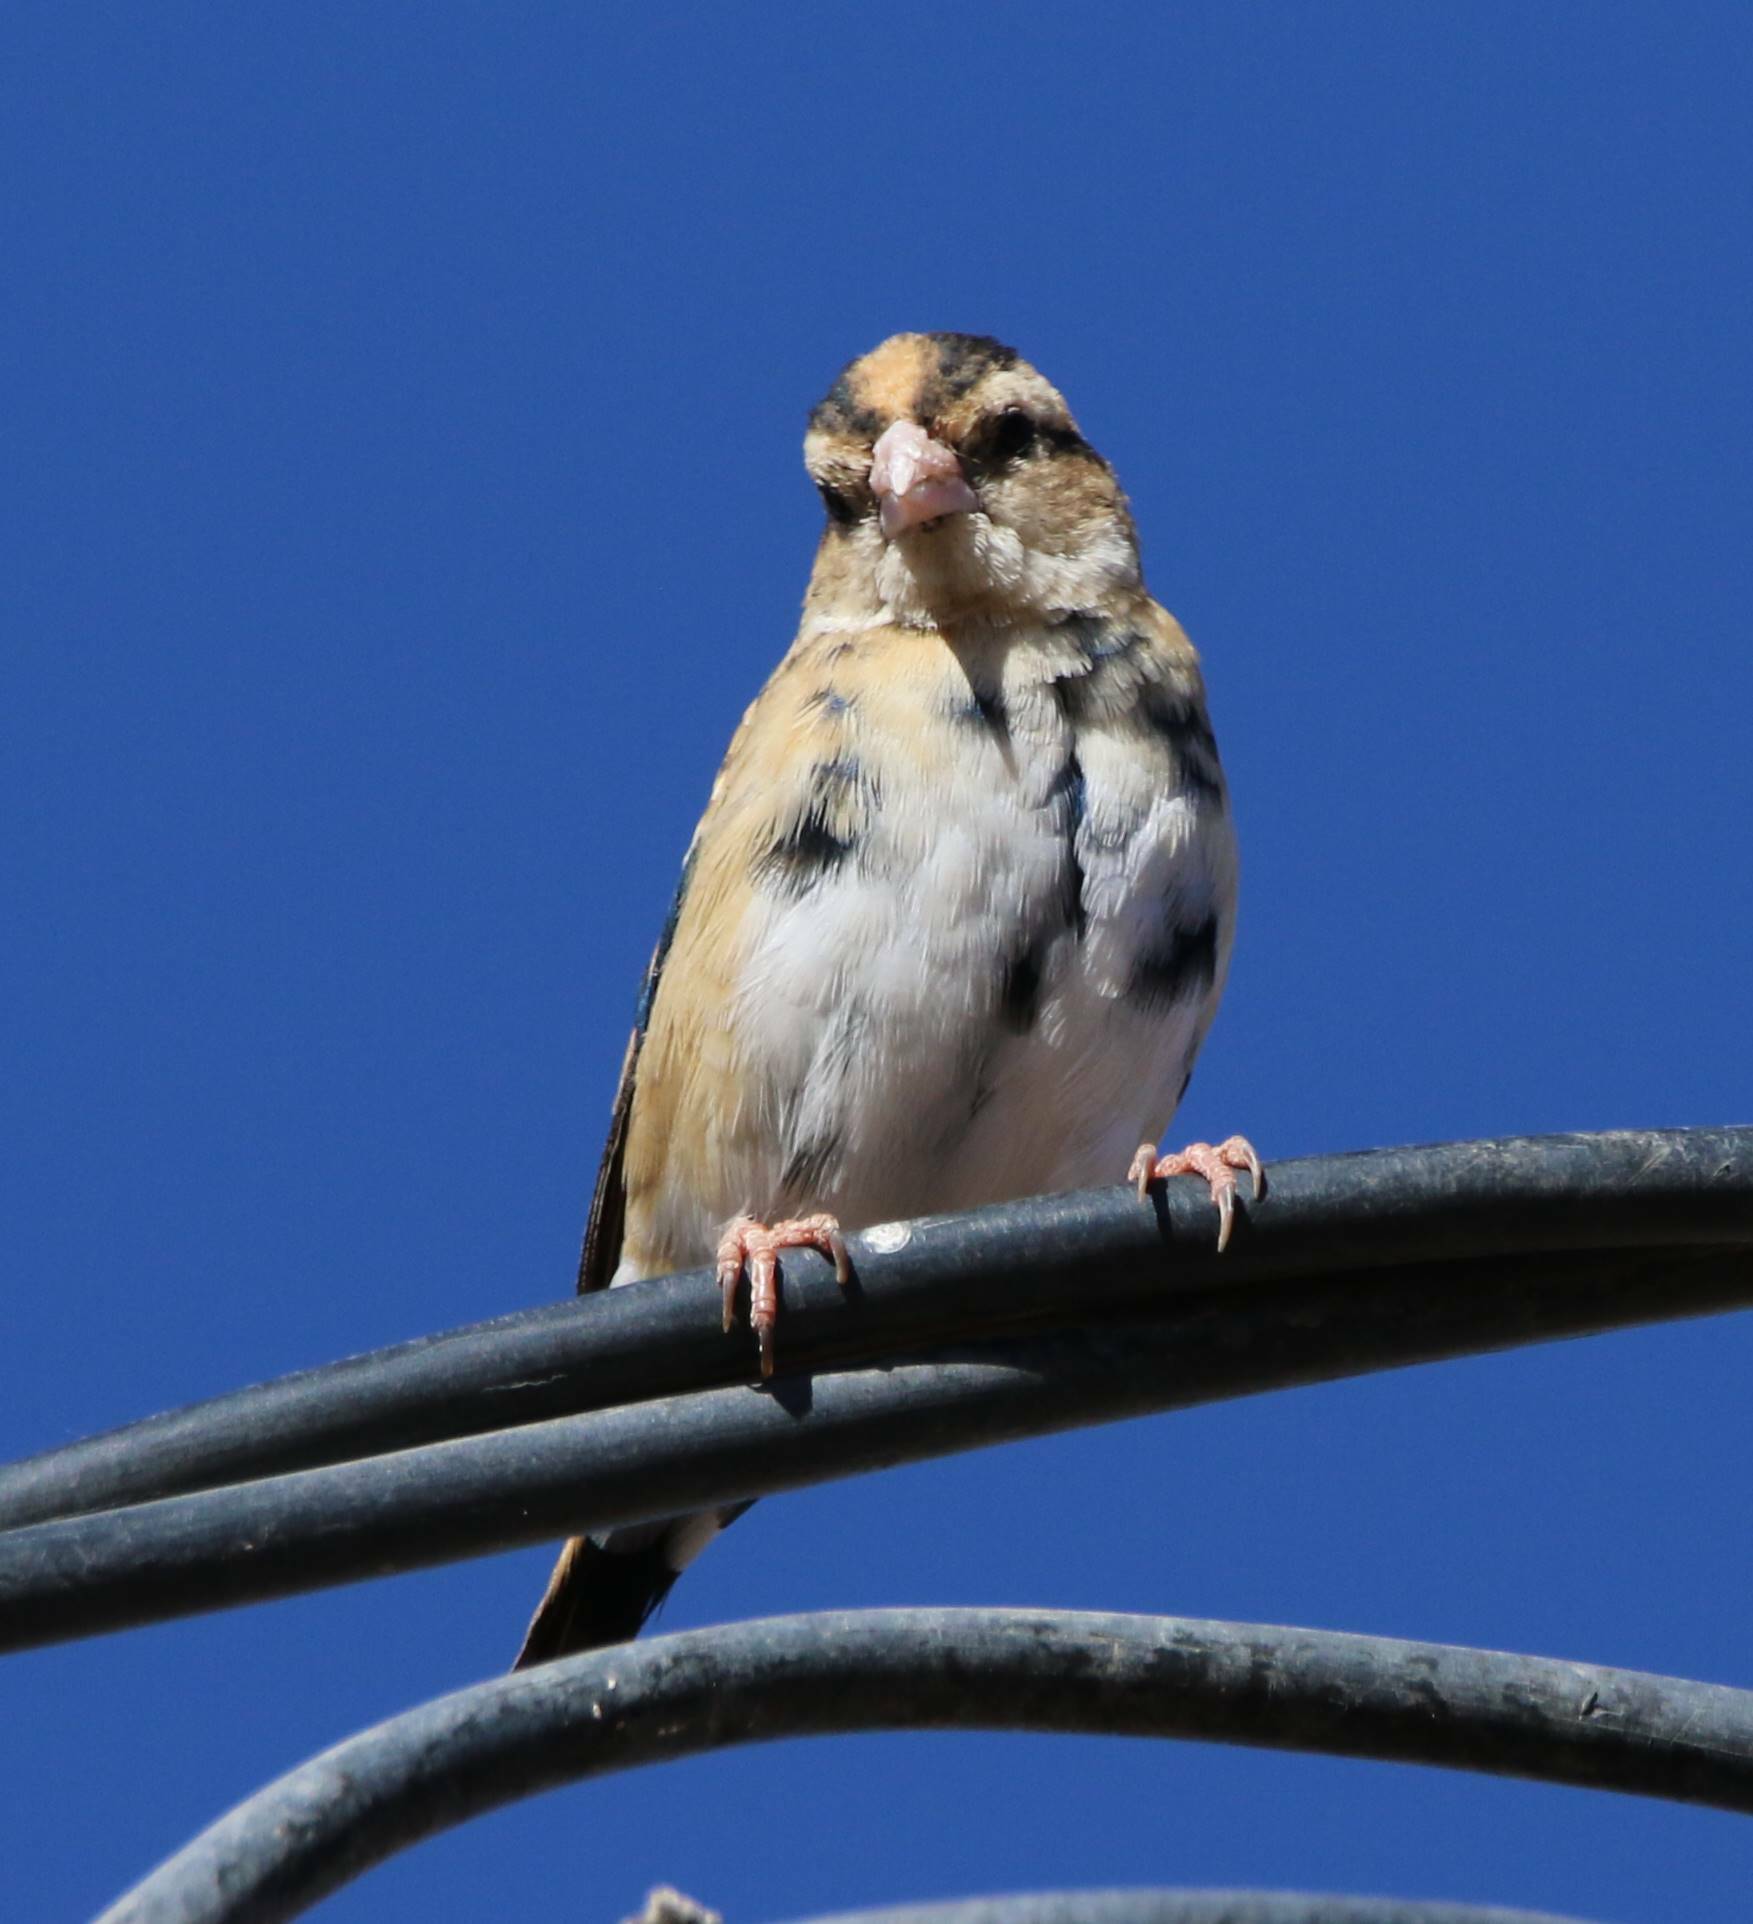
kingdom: Animalia
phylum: Chordata
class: Aves
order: Passeriformes
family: Viduidae
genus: Vidua
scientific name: Vidua chalybeata
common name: Village indigobird
